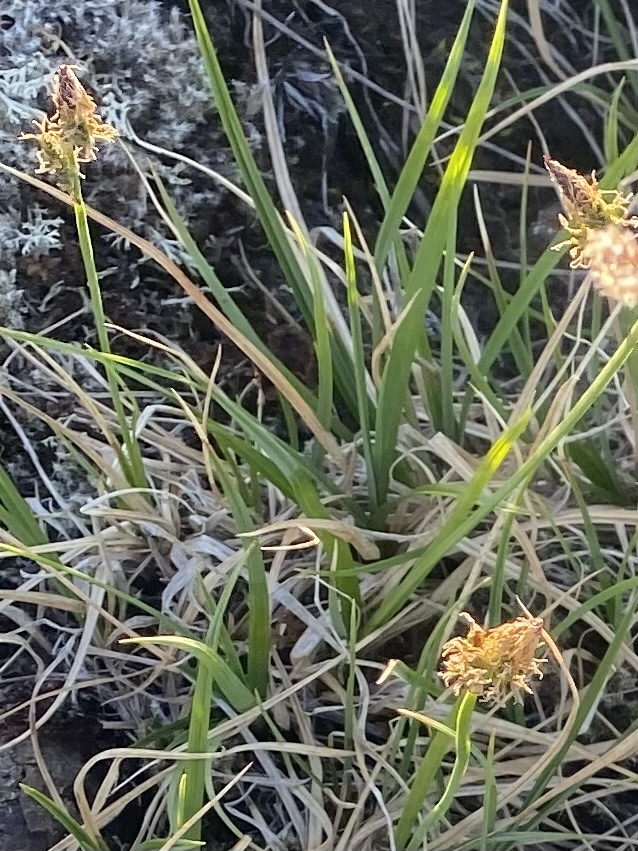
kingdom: Plantae
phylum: Tracheophyta
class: Liliopsida
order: Poales
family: Cyperaceae
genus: Carex
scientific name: Carex bigelowii
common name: Stiff sedge
